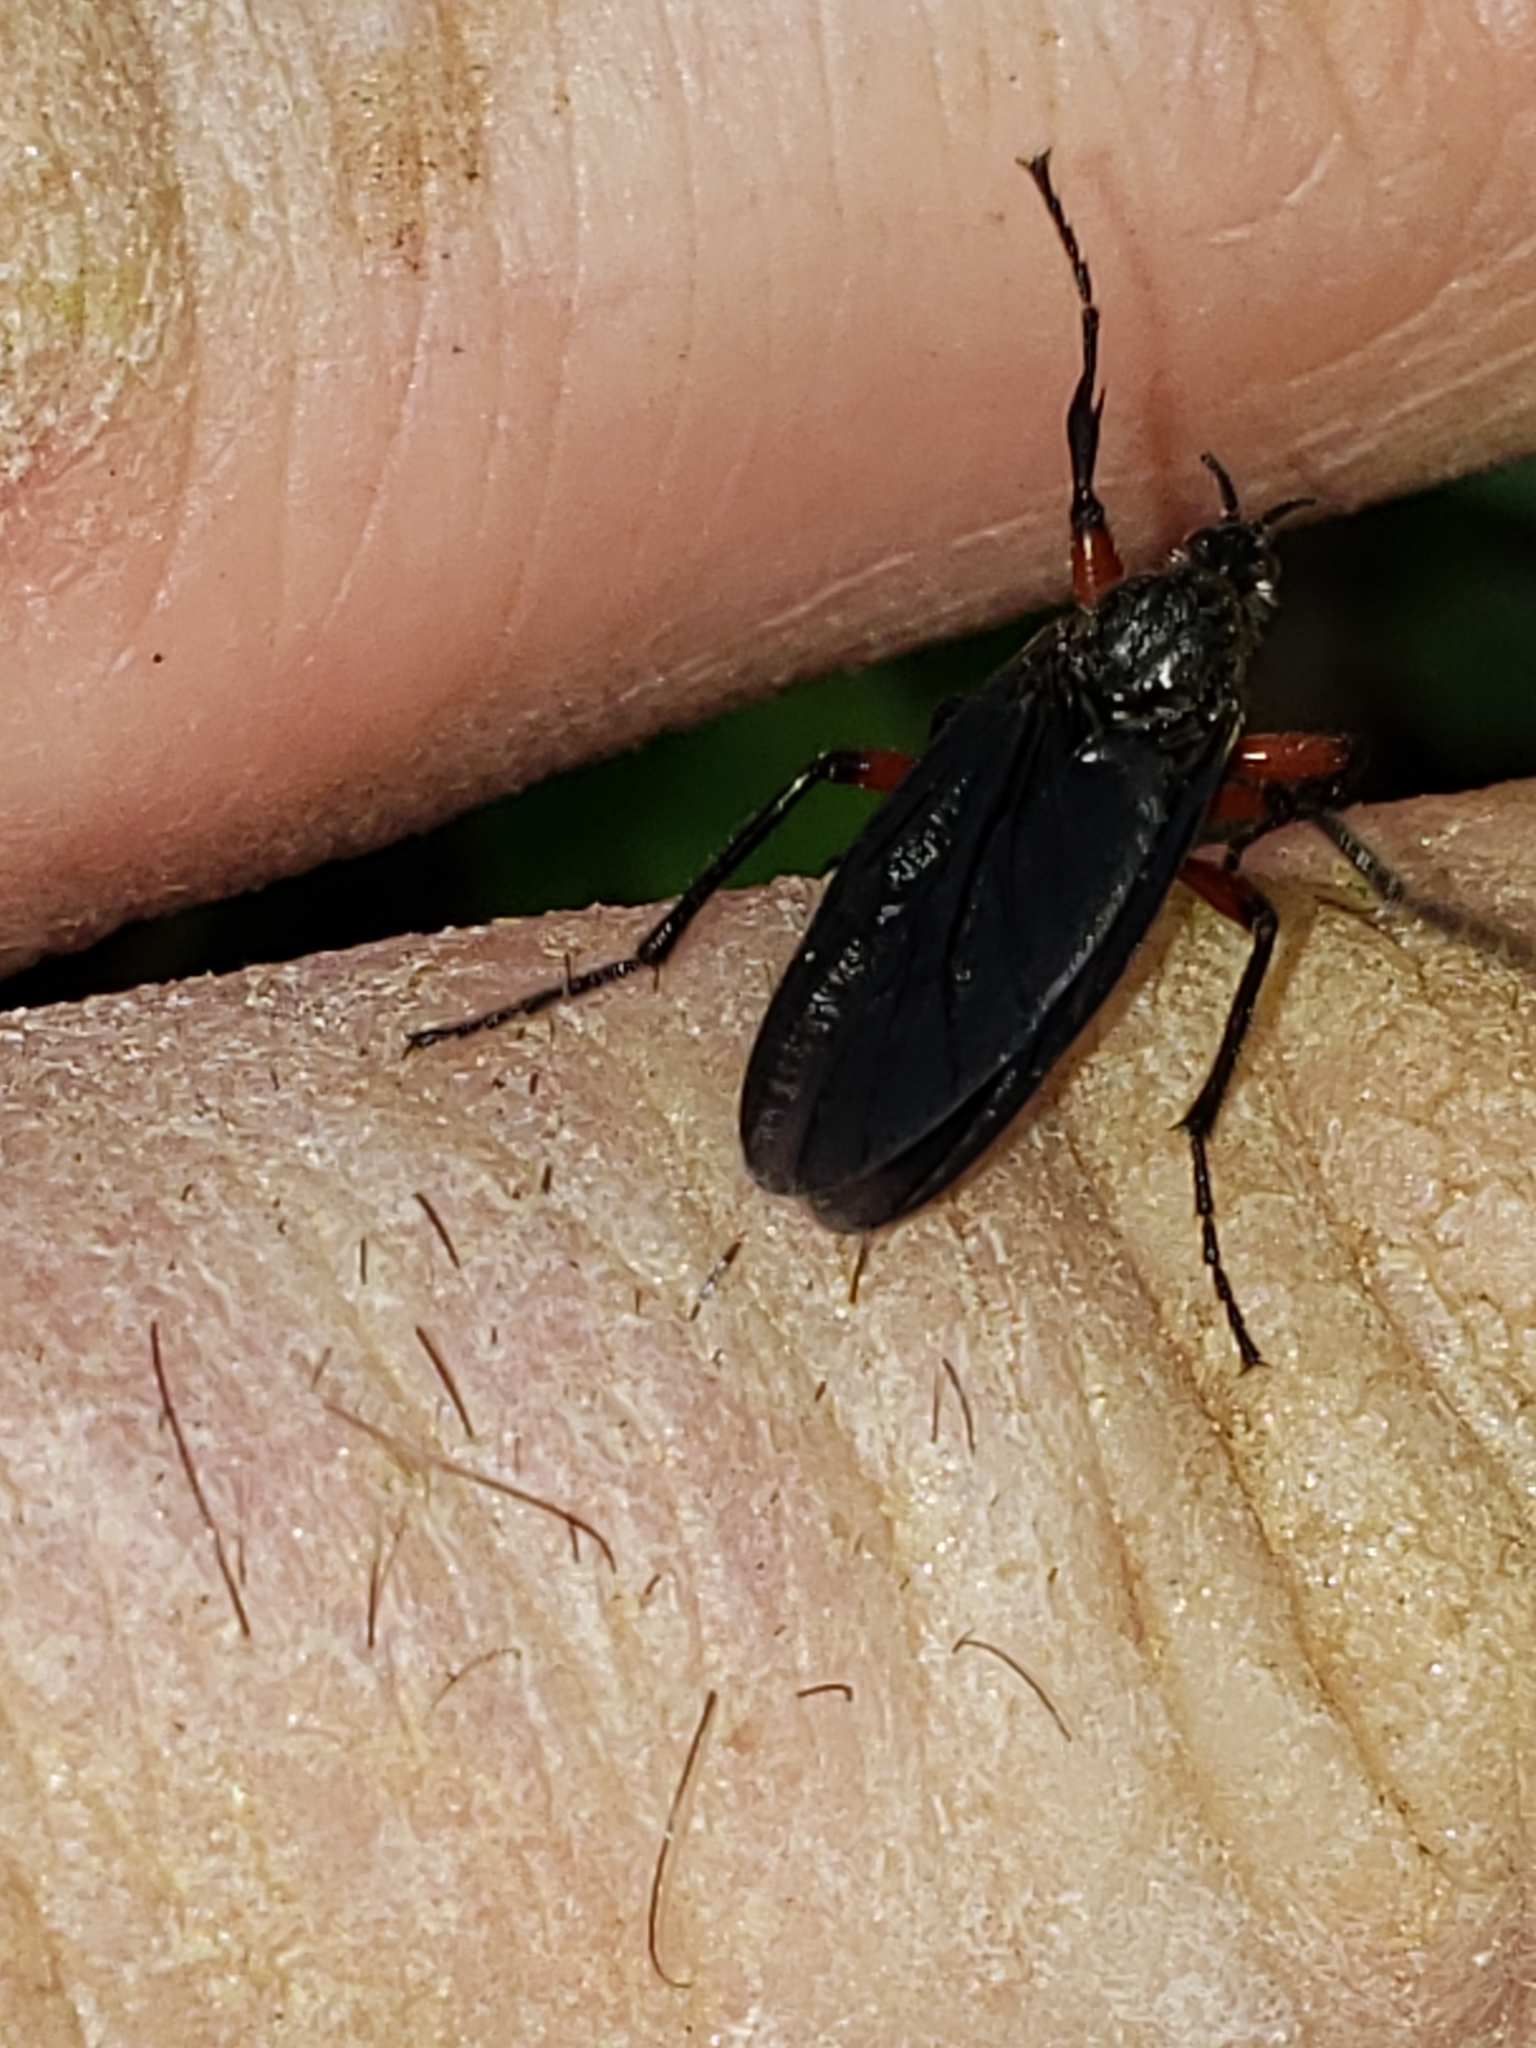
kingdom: Animalia
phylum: Arthropoda
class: Insecta
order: Diptera
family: Bibionidae
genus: Bibio
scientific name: Bibio femoratus
